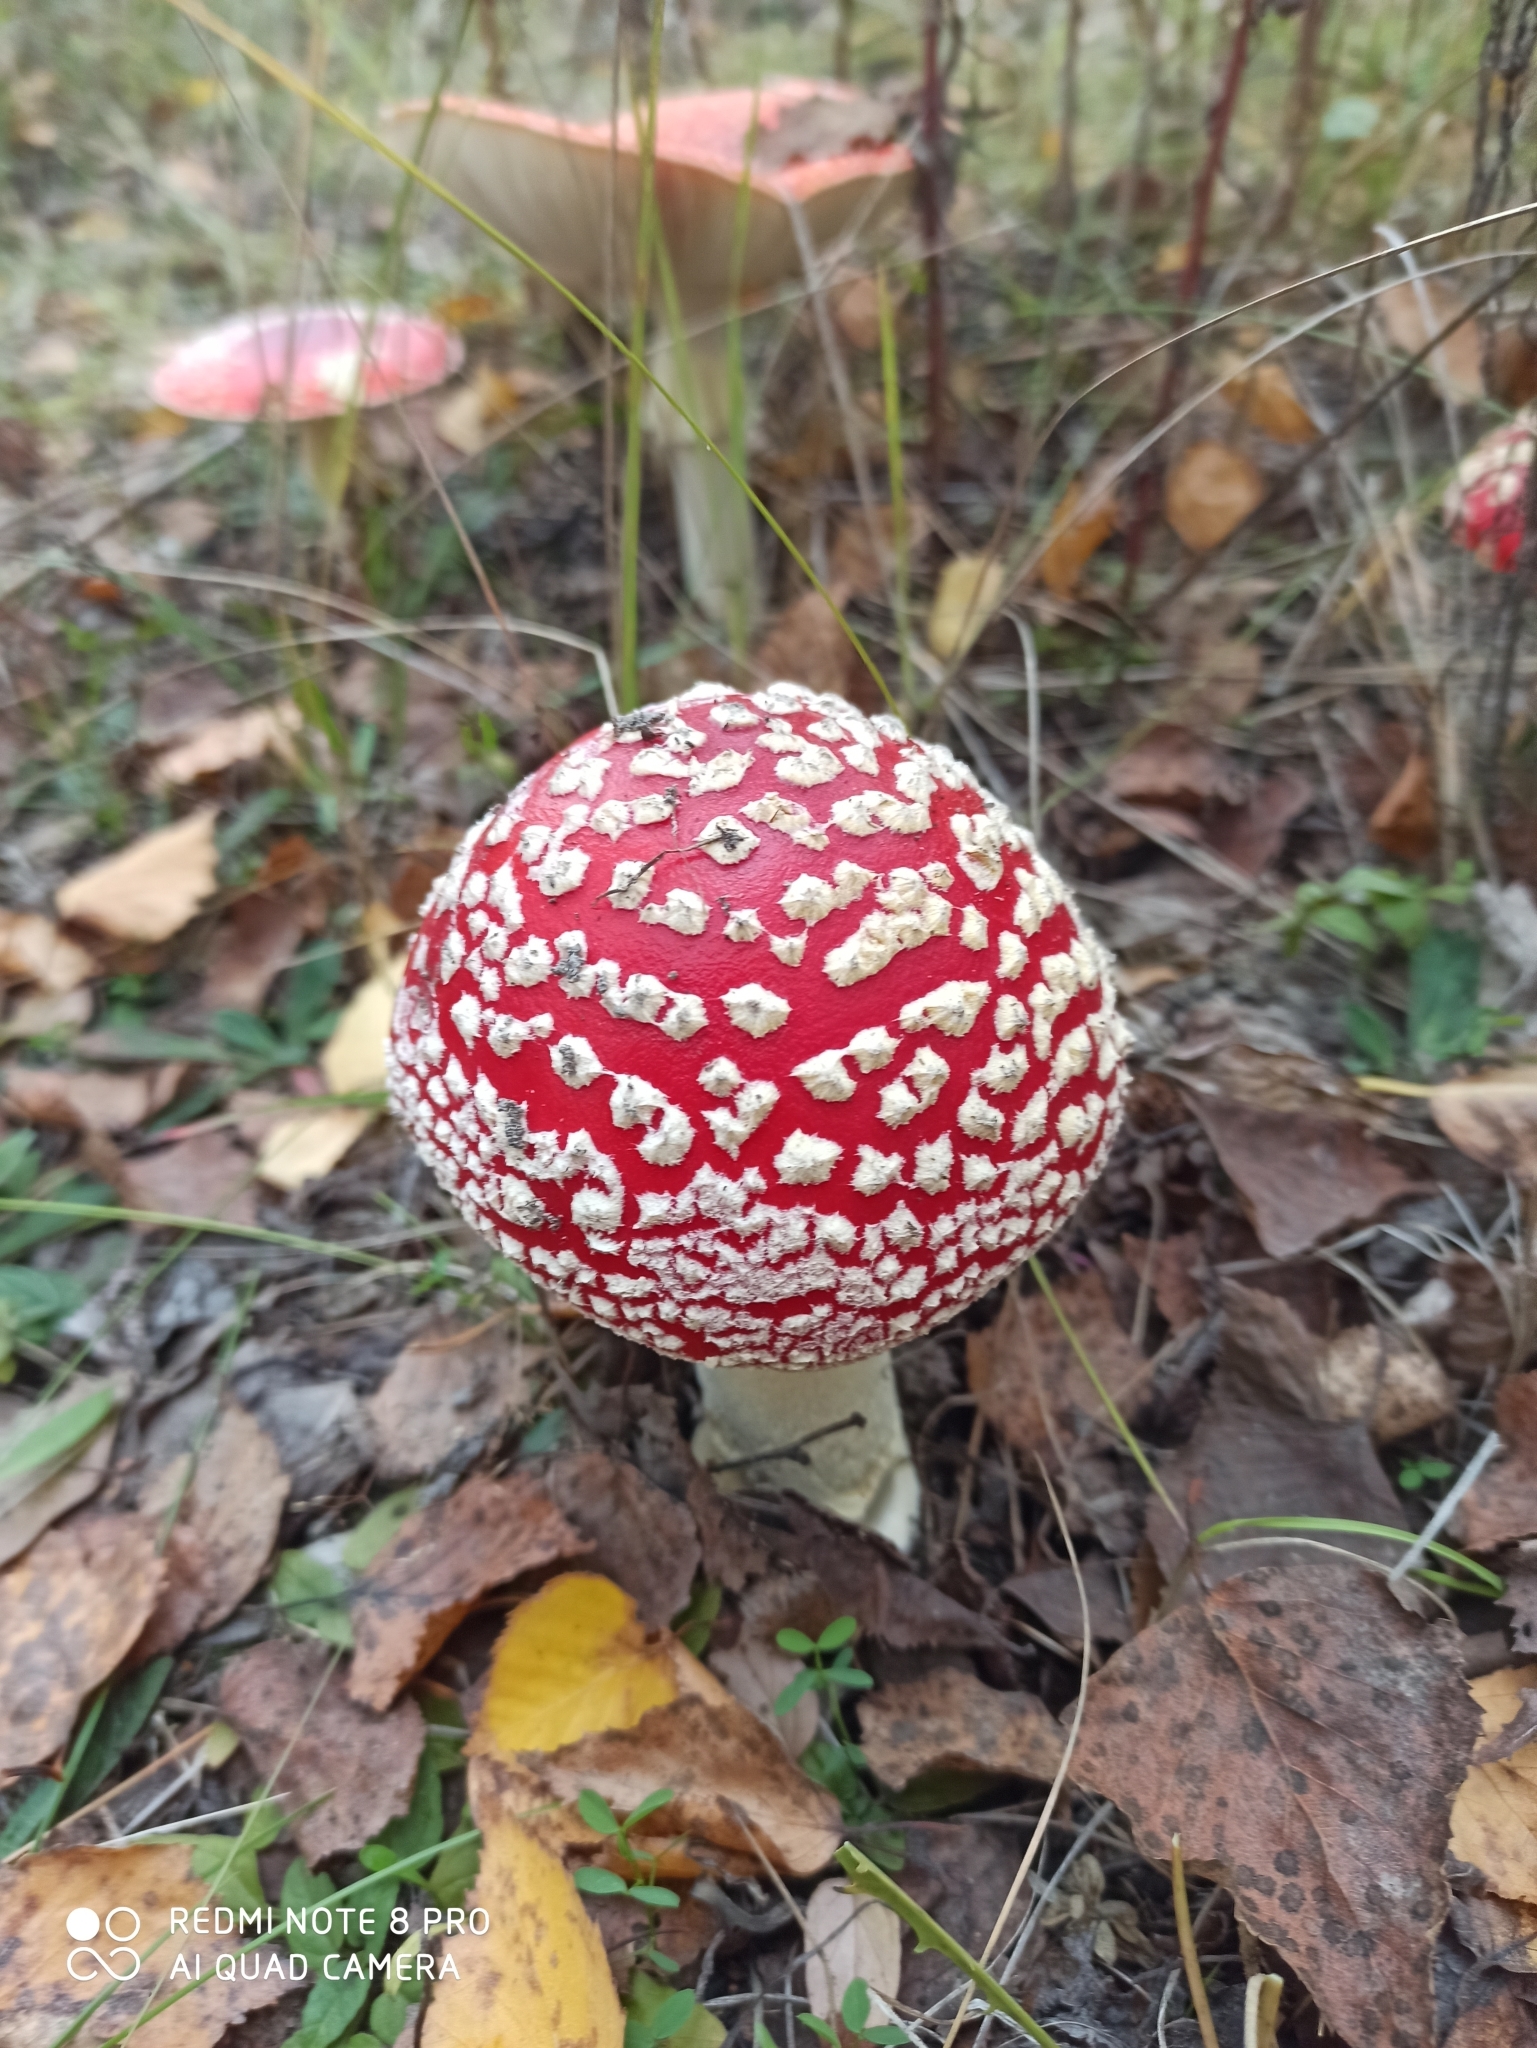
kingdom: Fungi
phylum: Basidiomycota
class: Agaricomycetes
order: Agaricales
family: Amanitaceae
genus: Amanita
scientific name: Amanita muscaria
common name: Fly agaric
